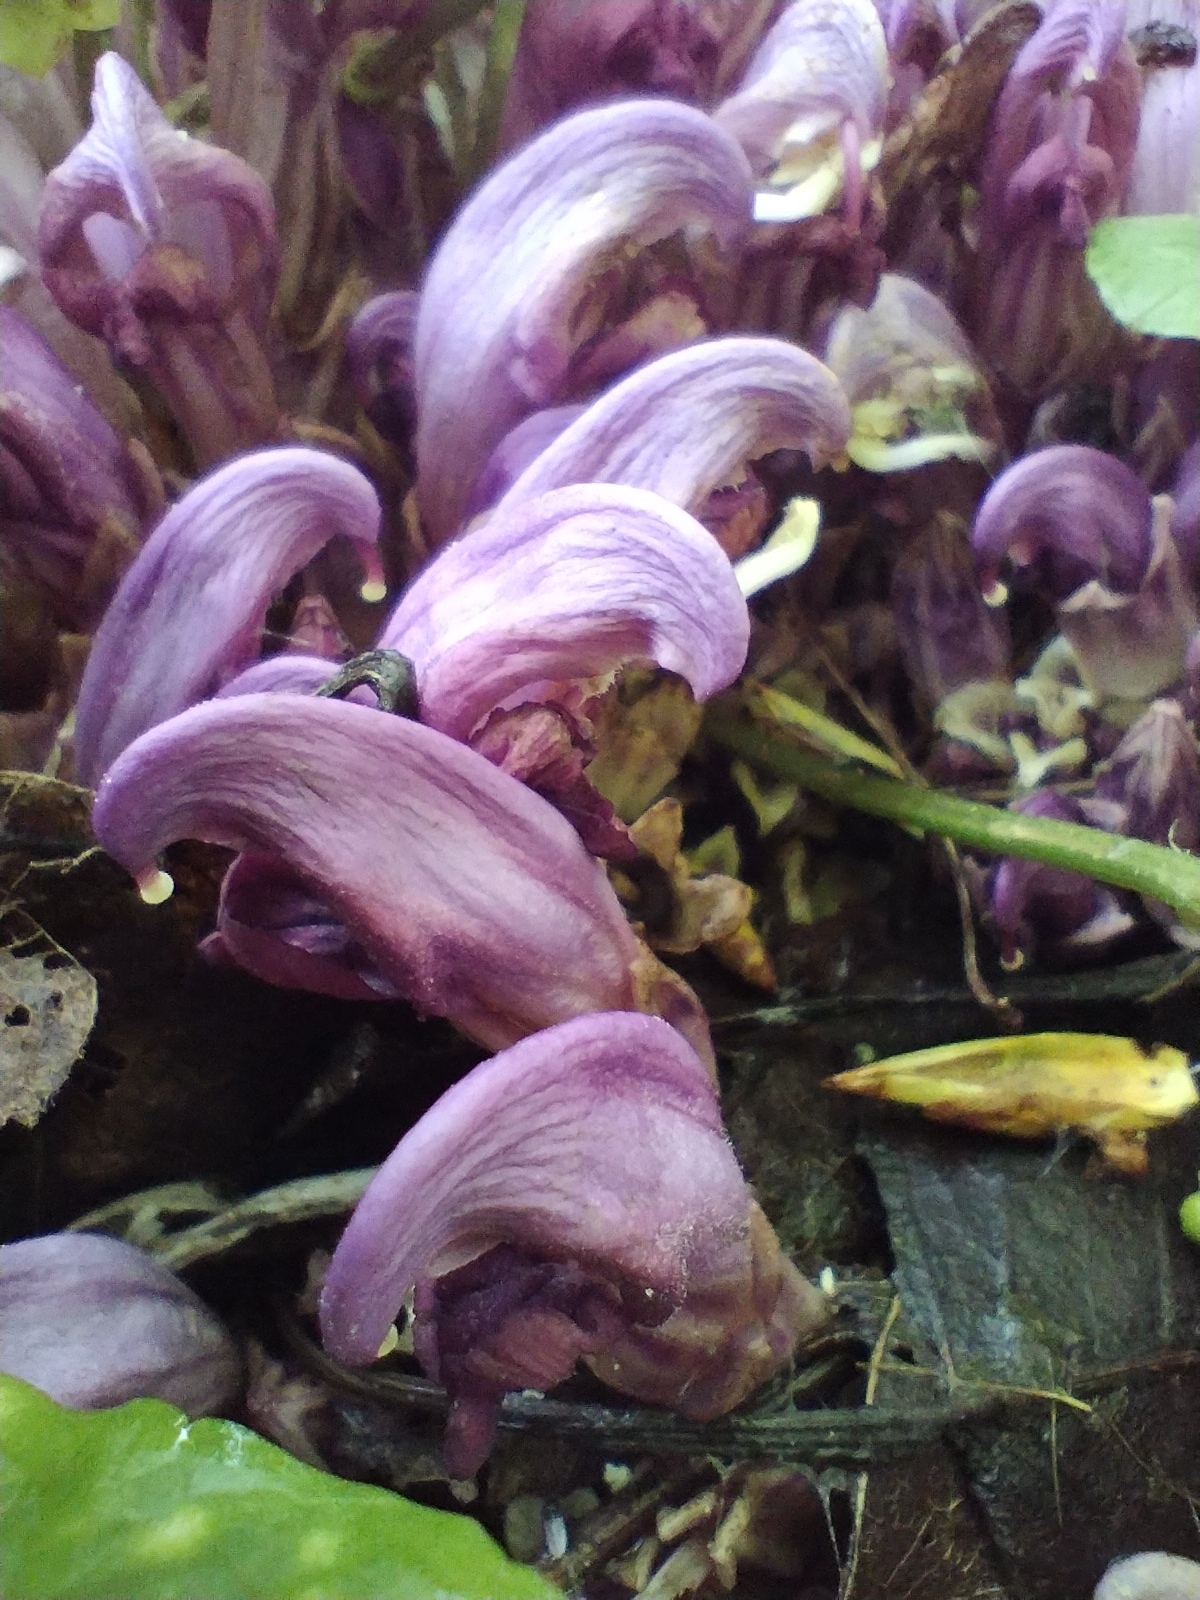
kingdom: Plantae
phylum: Tracheophyta
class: Magnoliopsida
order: Lamiales
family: Orobanchaceae
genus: Lathraea
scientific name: Lathraea clandestina
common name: Purple toothwort
